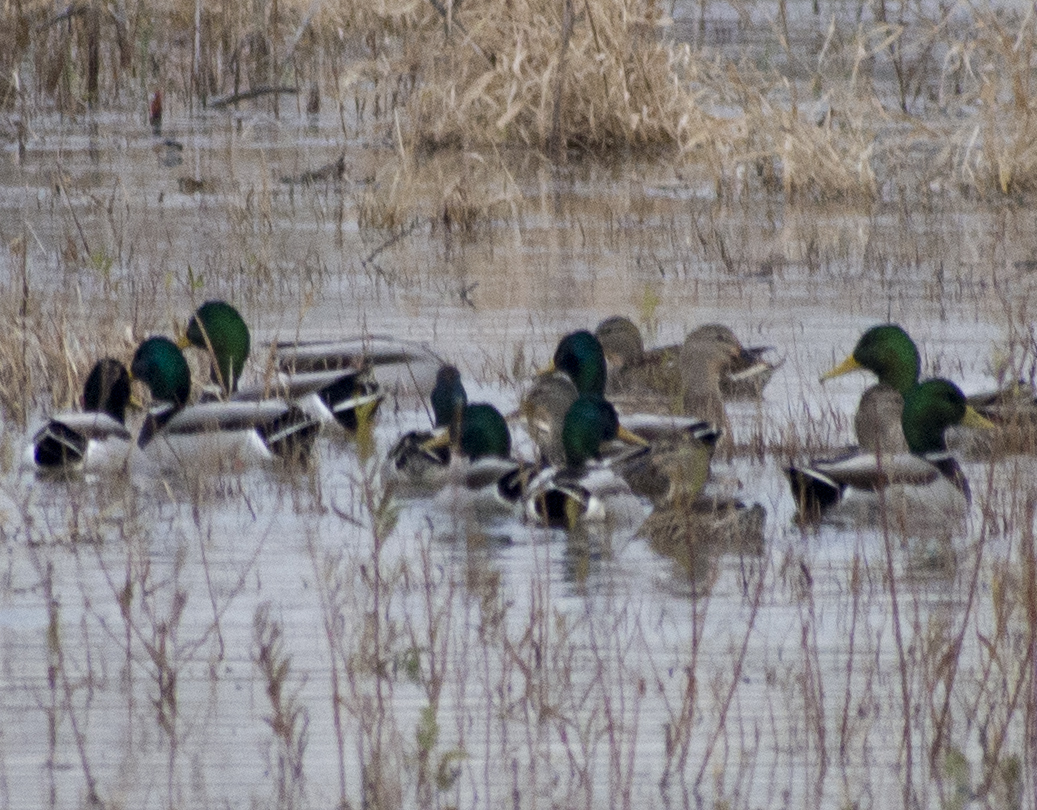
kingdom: Animalia
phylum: Chordata
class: Aves
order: Anseriformes
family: Anatidae
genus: Anas
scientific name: Anas platyrhynchos
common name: Mallard
